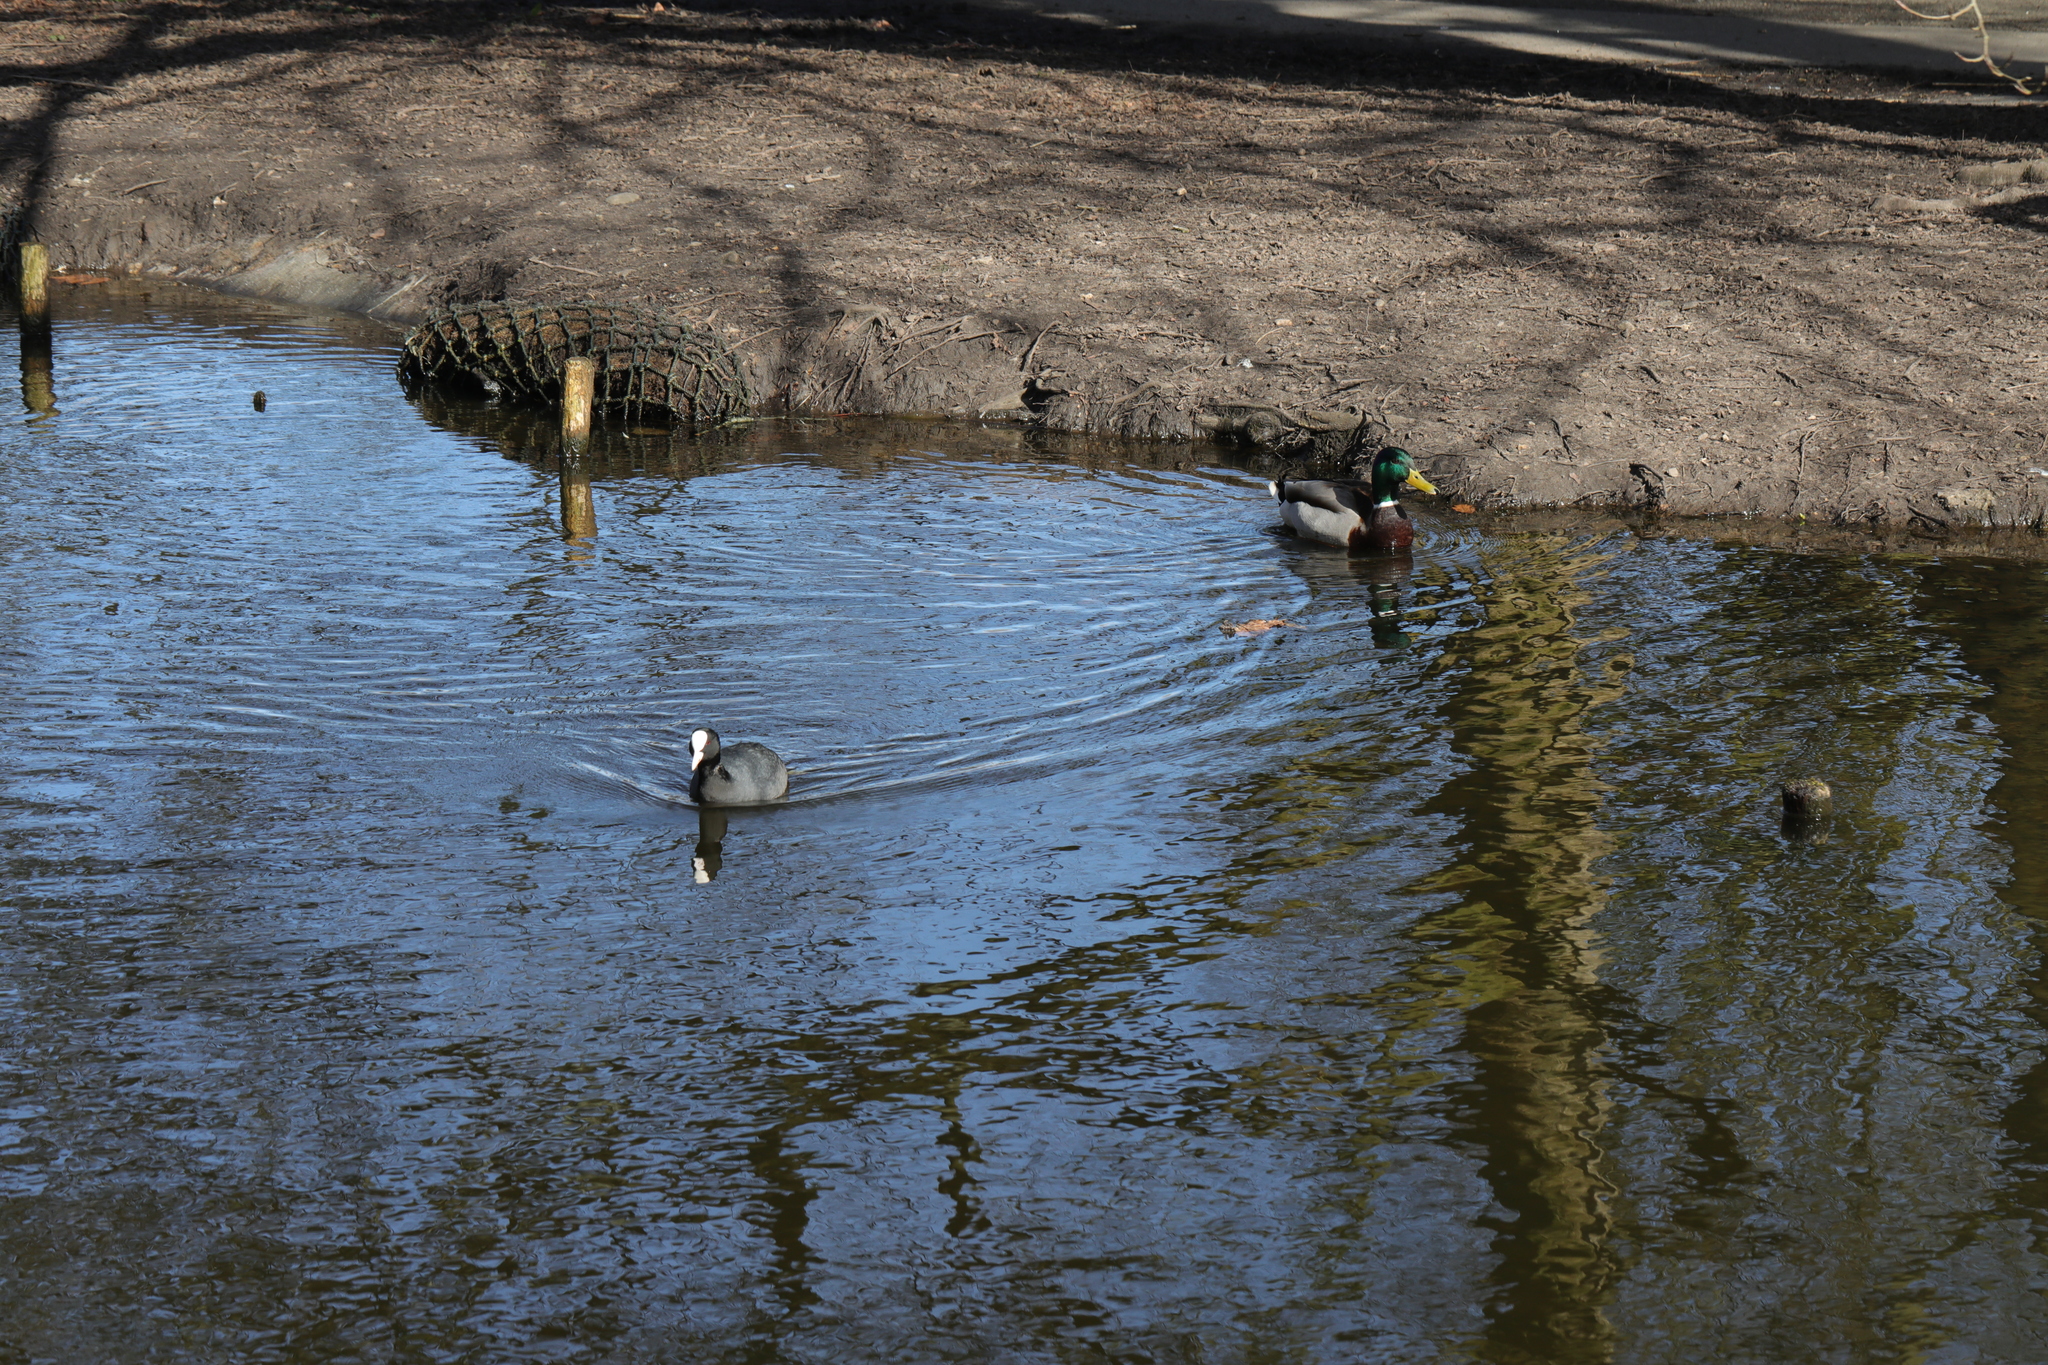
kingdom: Animalia
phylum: Chordata
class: Aves
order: Anseriformes
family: Anatidae
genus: Anas
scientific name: Anas platyrhynchos
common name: Mallard
